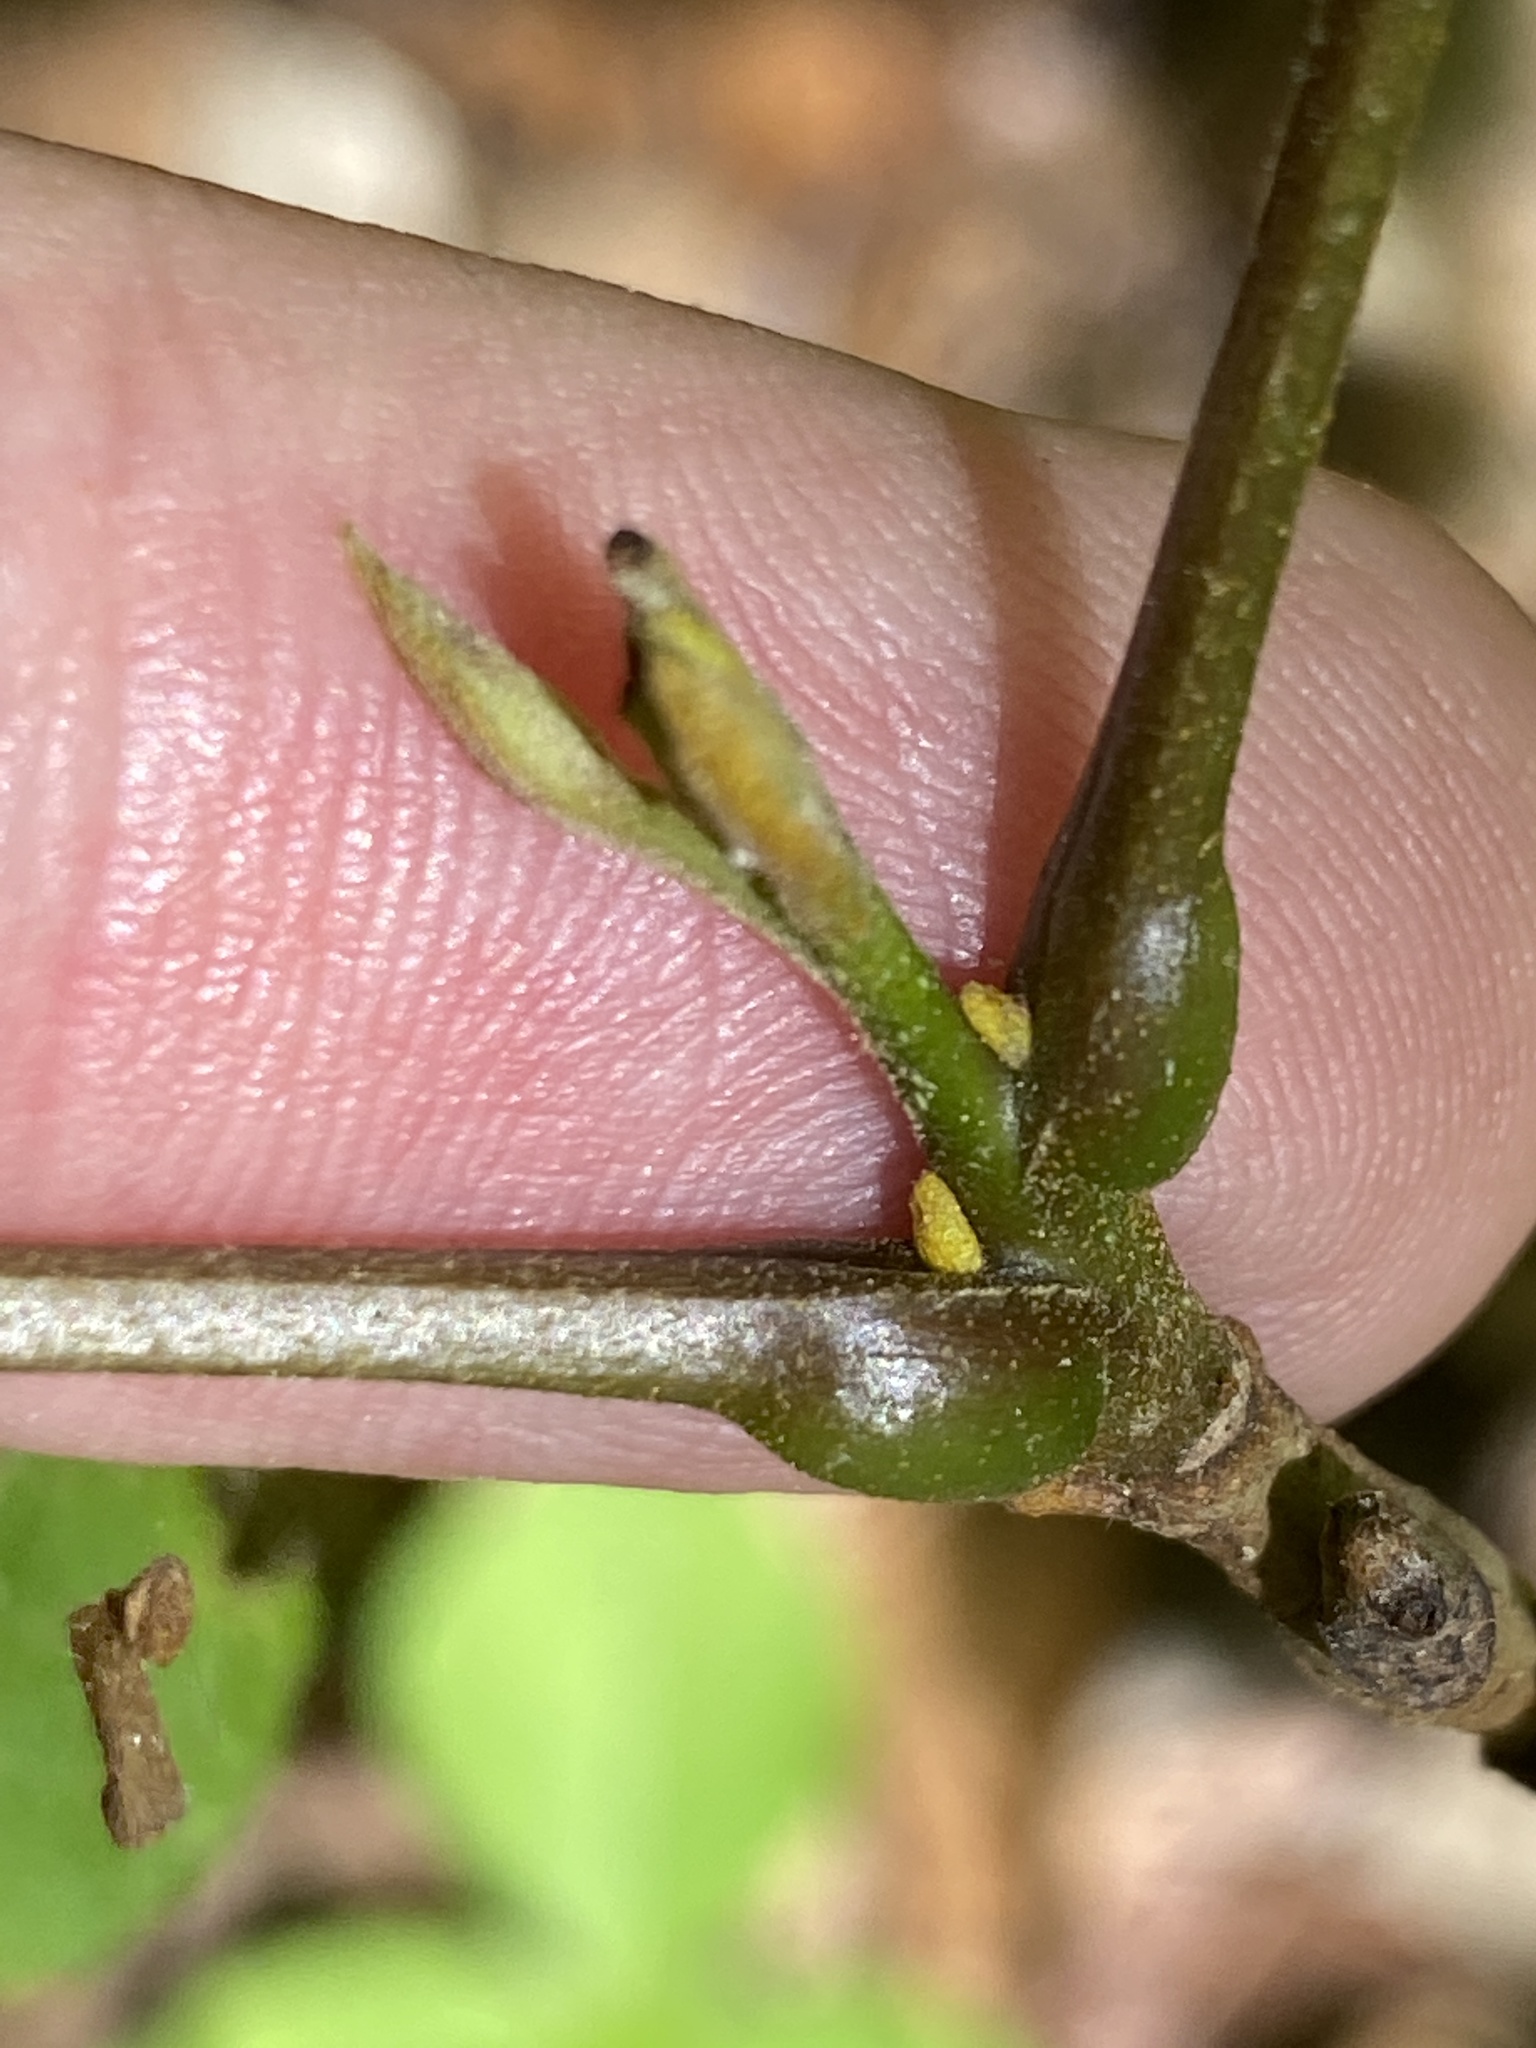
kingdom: Plantae
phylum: Tracheophyta
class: Magnoliopsida
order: Fagales
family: Juglandaceae
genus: Carya
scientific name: Carya cordiformis
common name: Bitternut hickory
